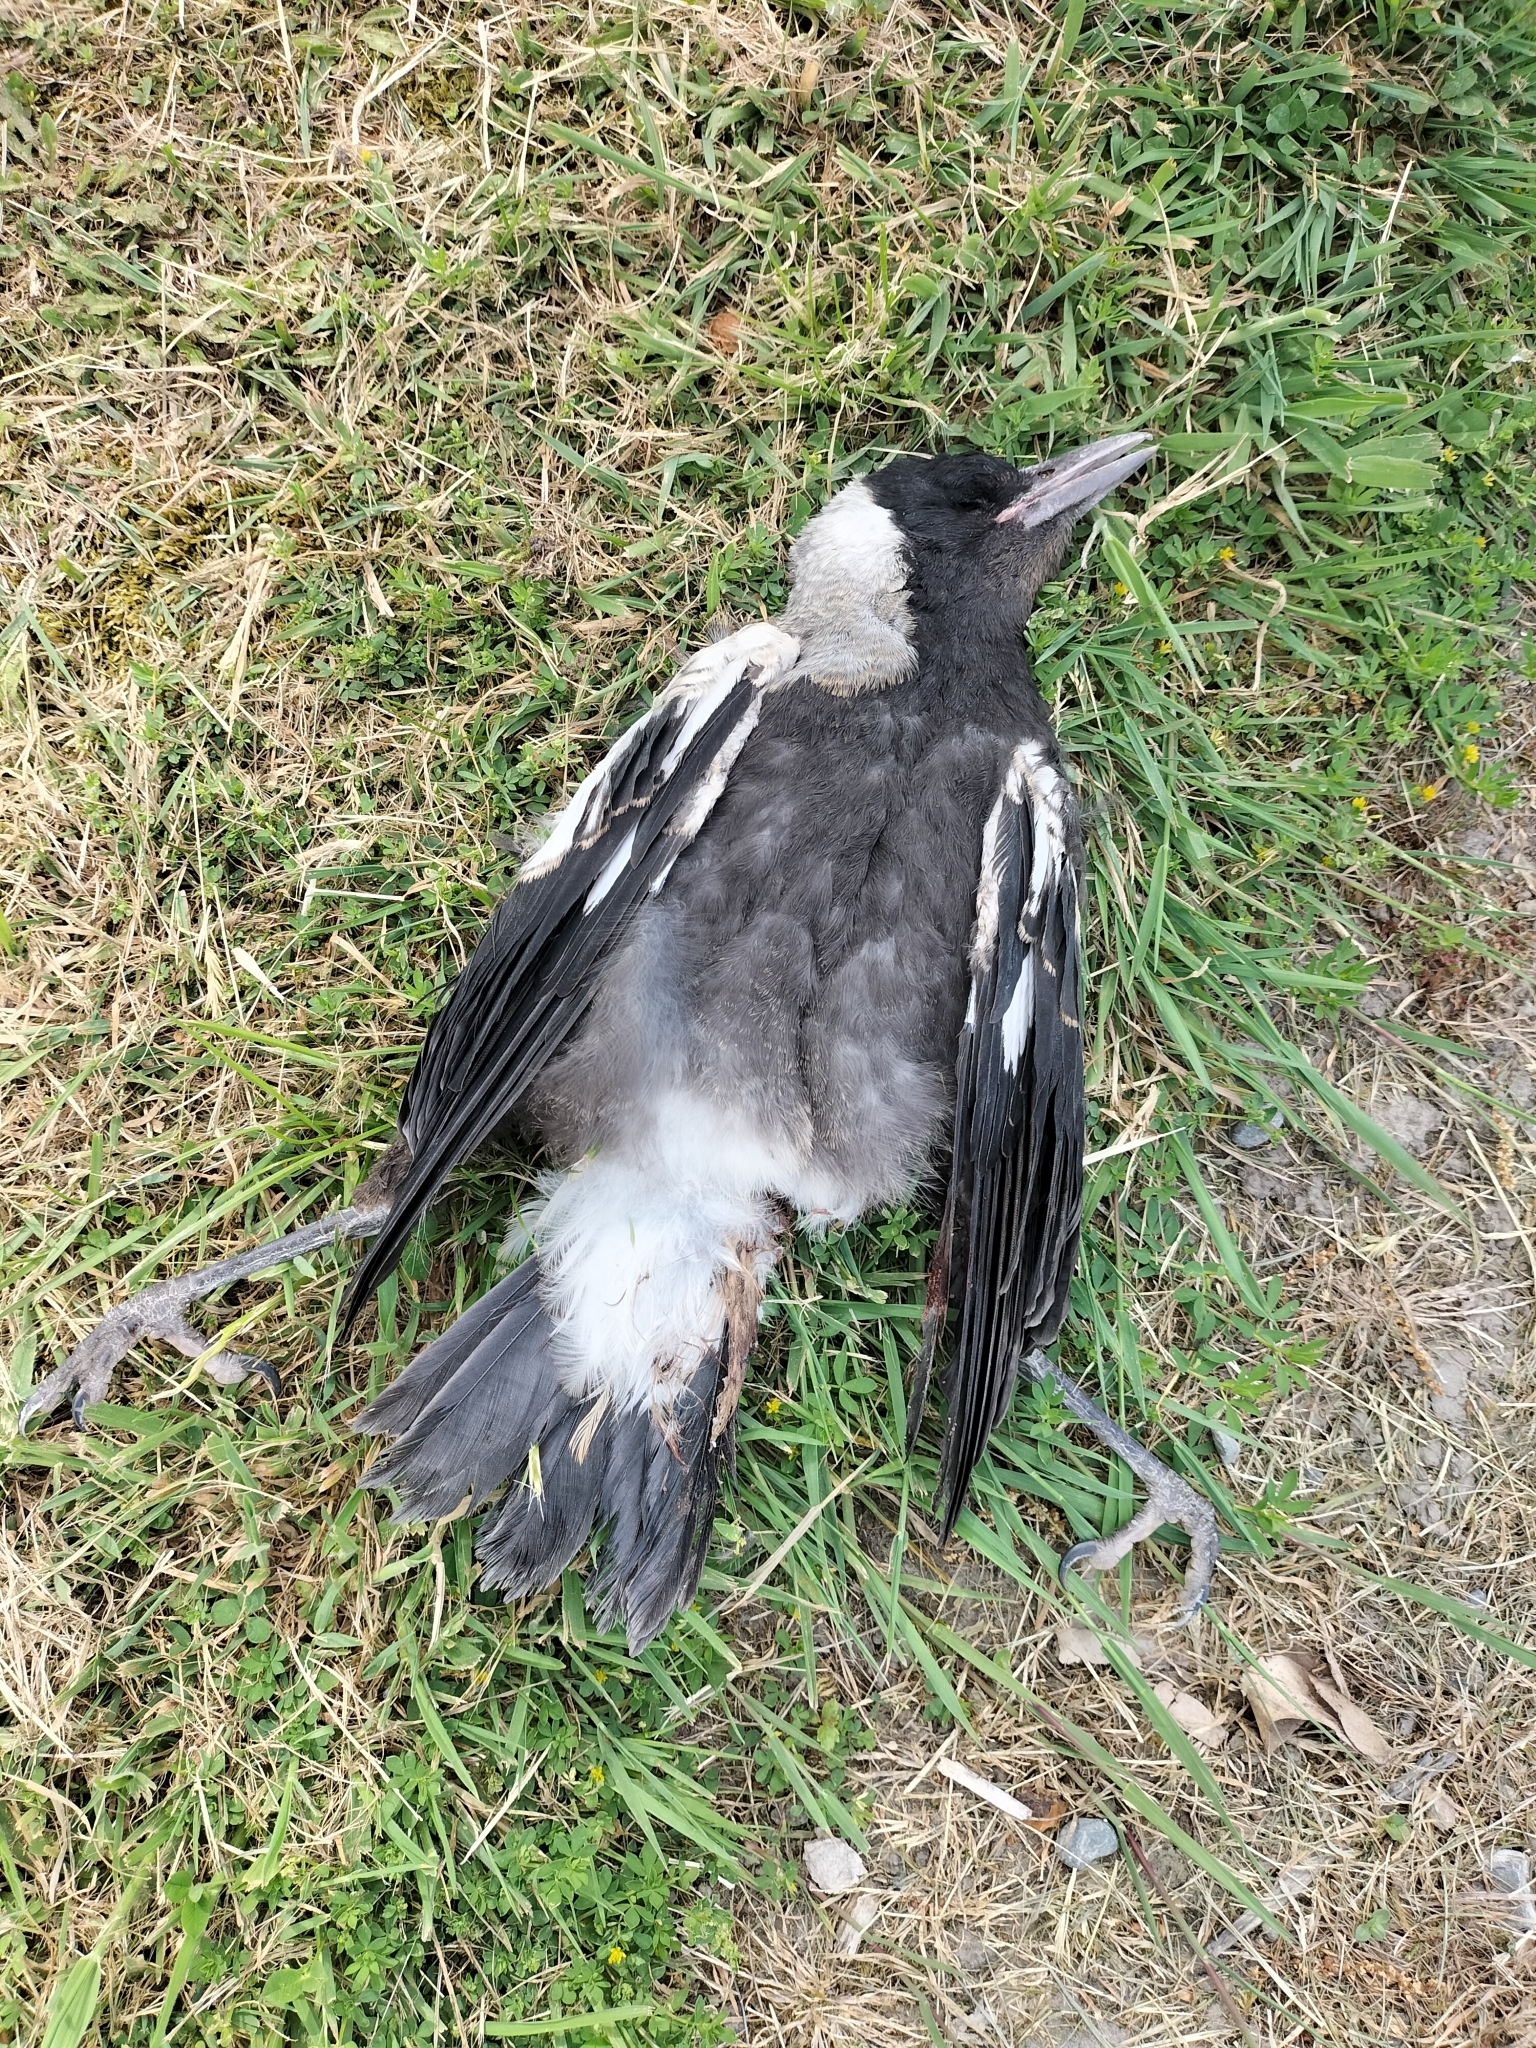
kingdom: Animalia
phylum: Chordata
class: Aves
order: Passeriformes
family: Cracticidae
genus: Gymnorhina
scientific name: Gymnorhina tibicen
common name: Australian magpie
